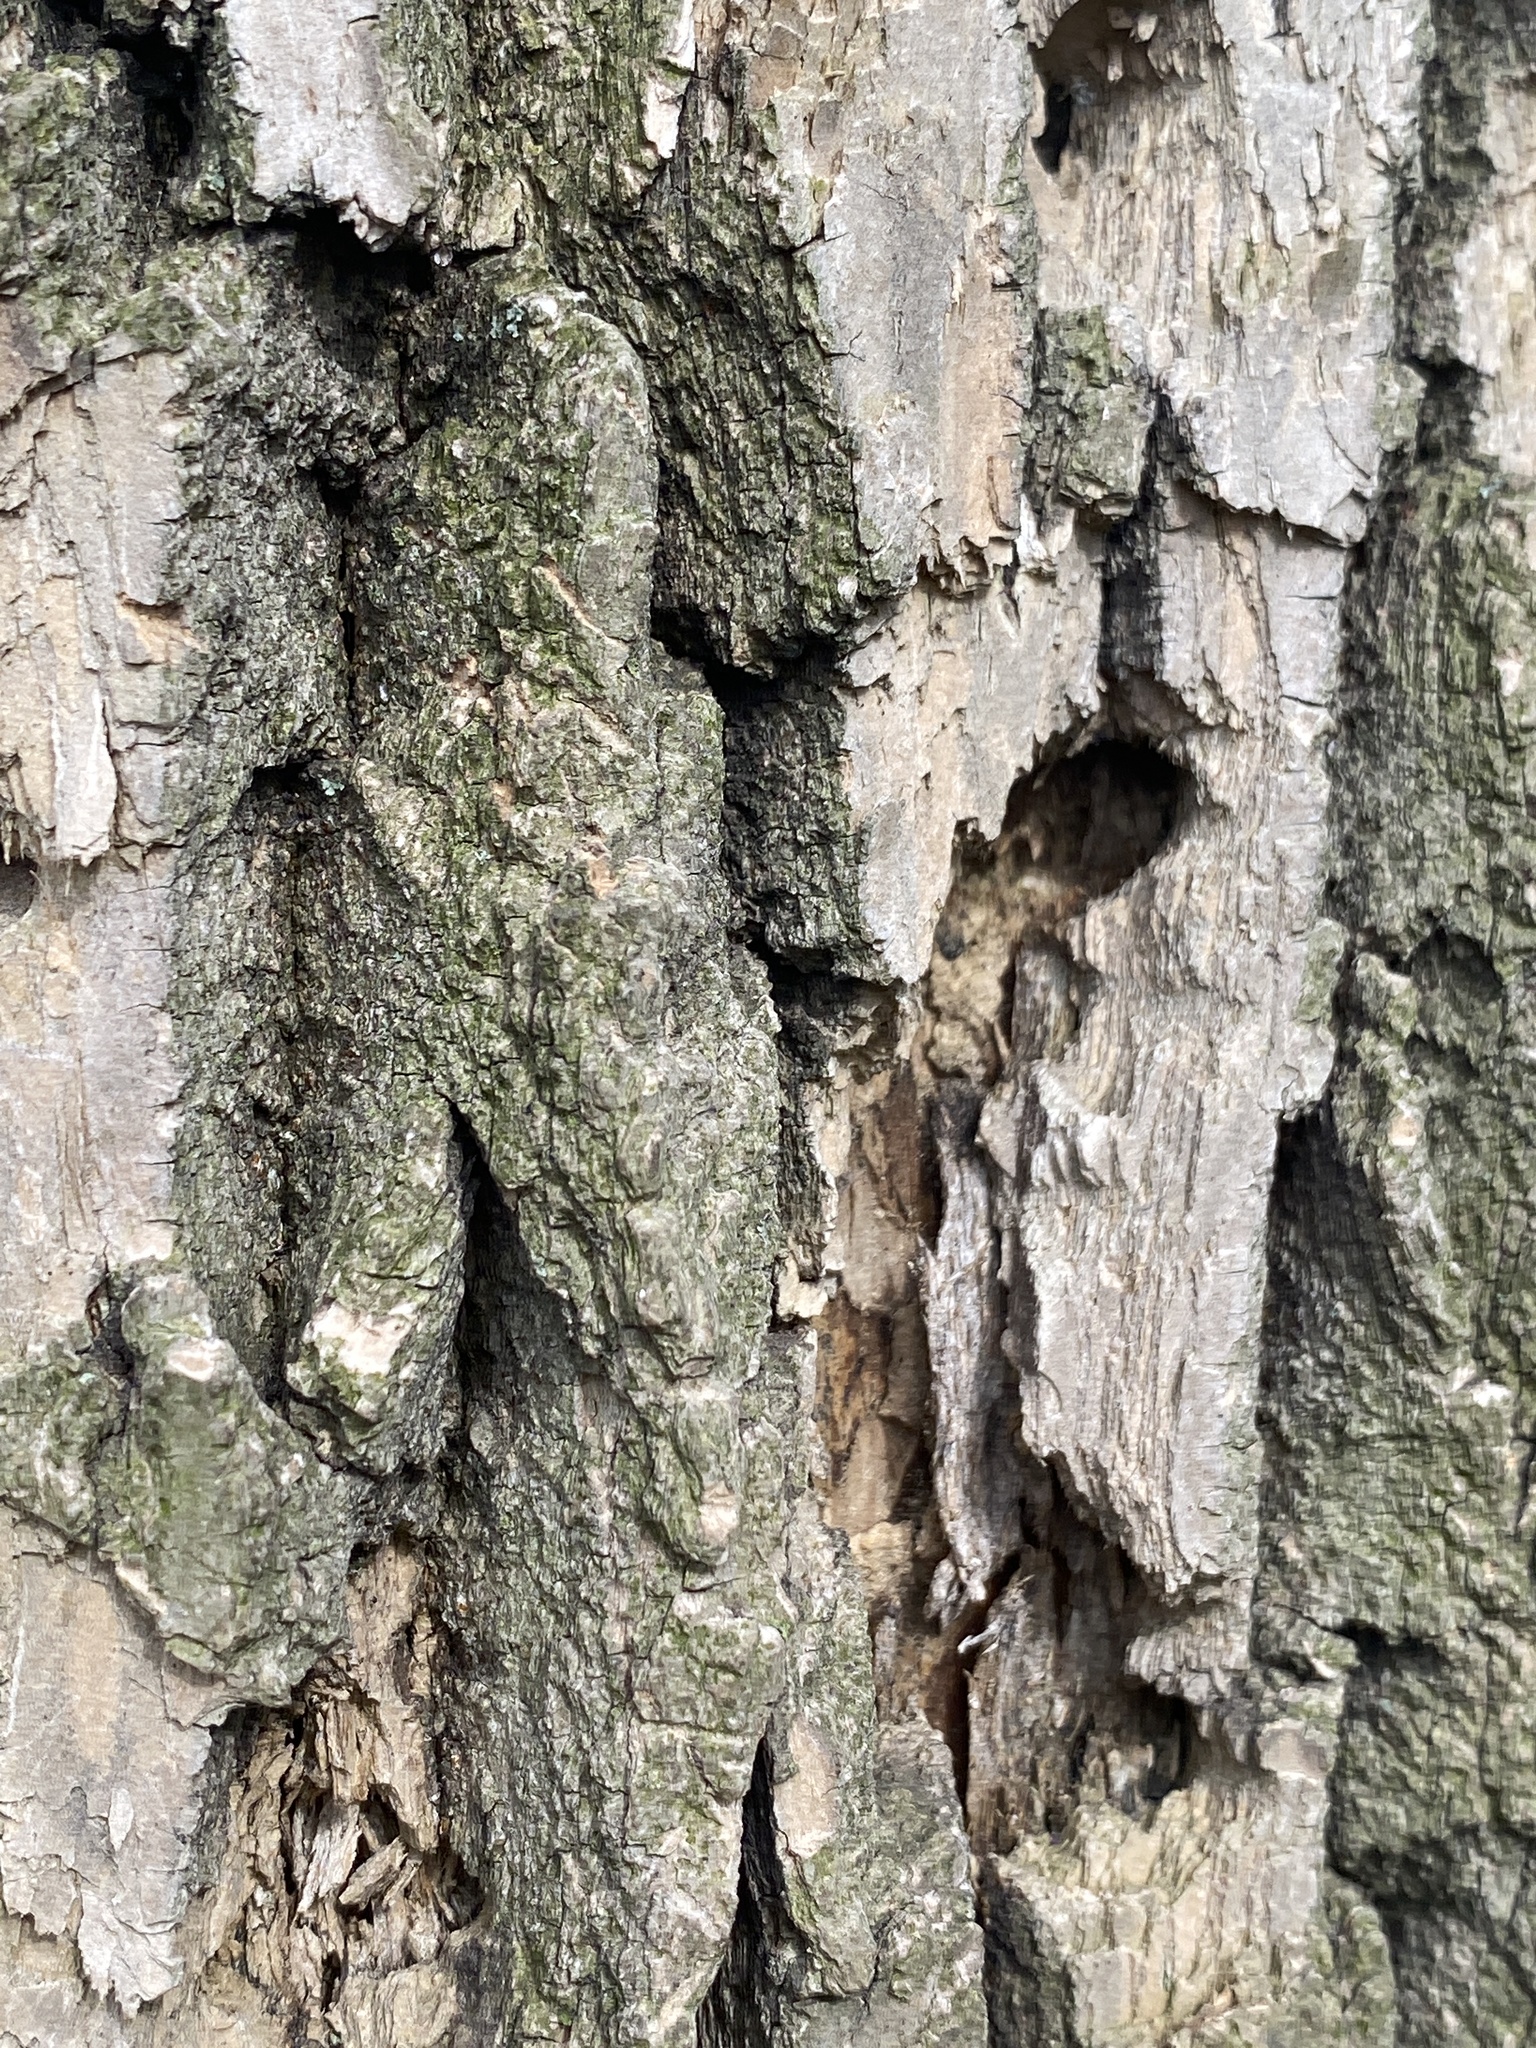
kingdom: Animalia
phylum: Arthropoda
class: Insecta
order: Coleoptera
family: Buprestidae
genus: Agrilus
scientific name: Agrilus planipennis
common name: Emerald ash borer
